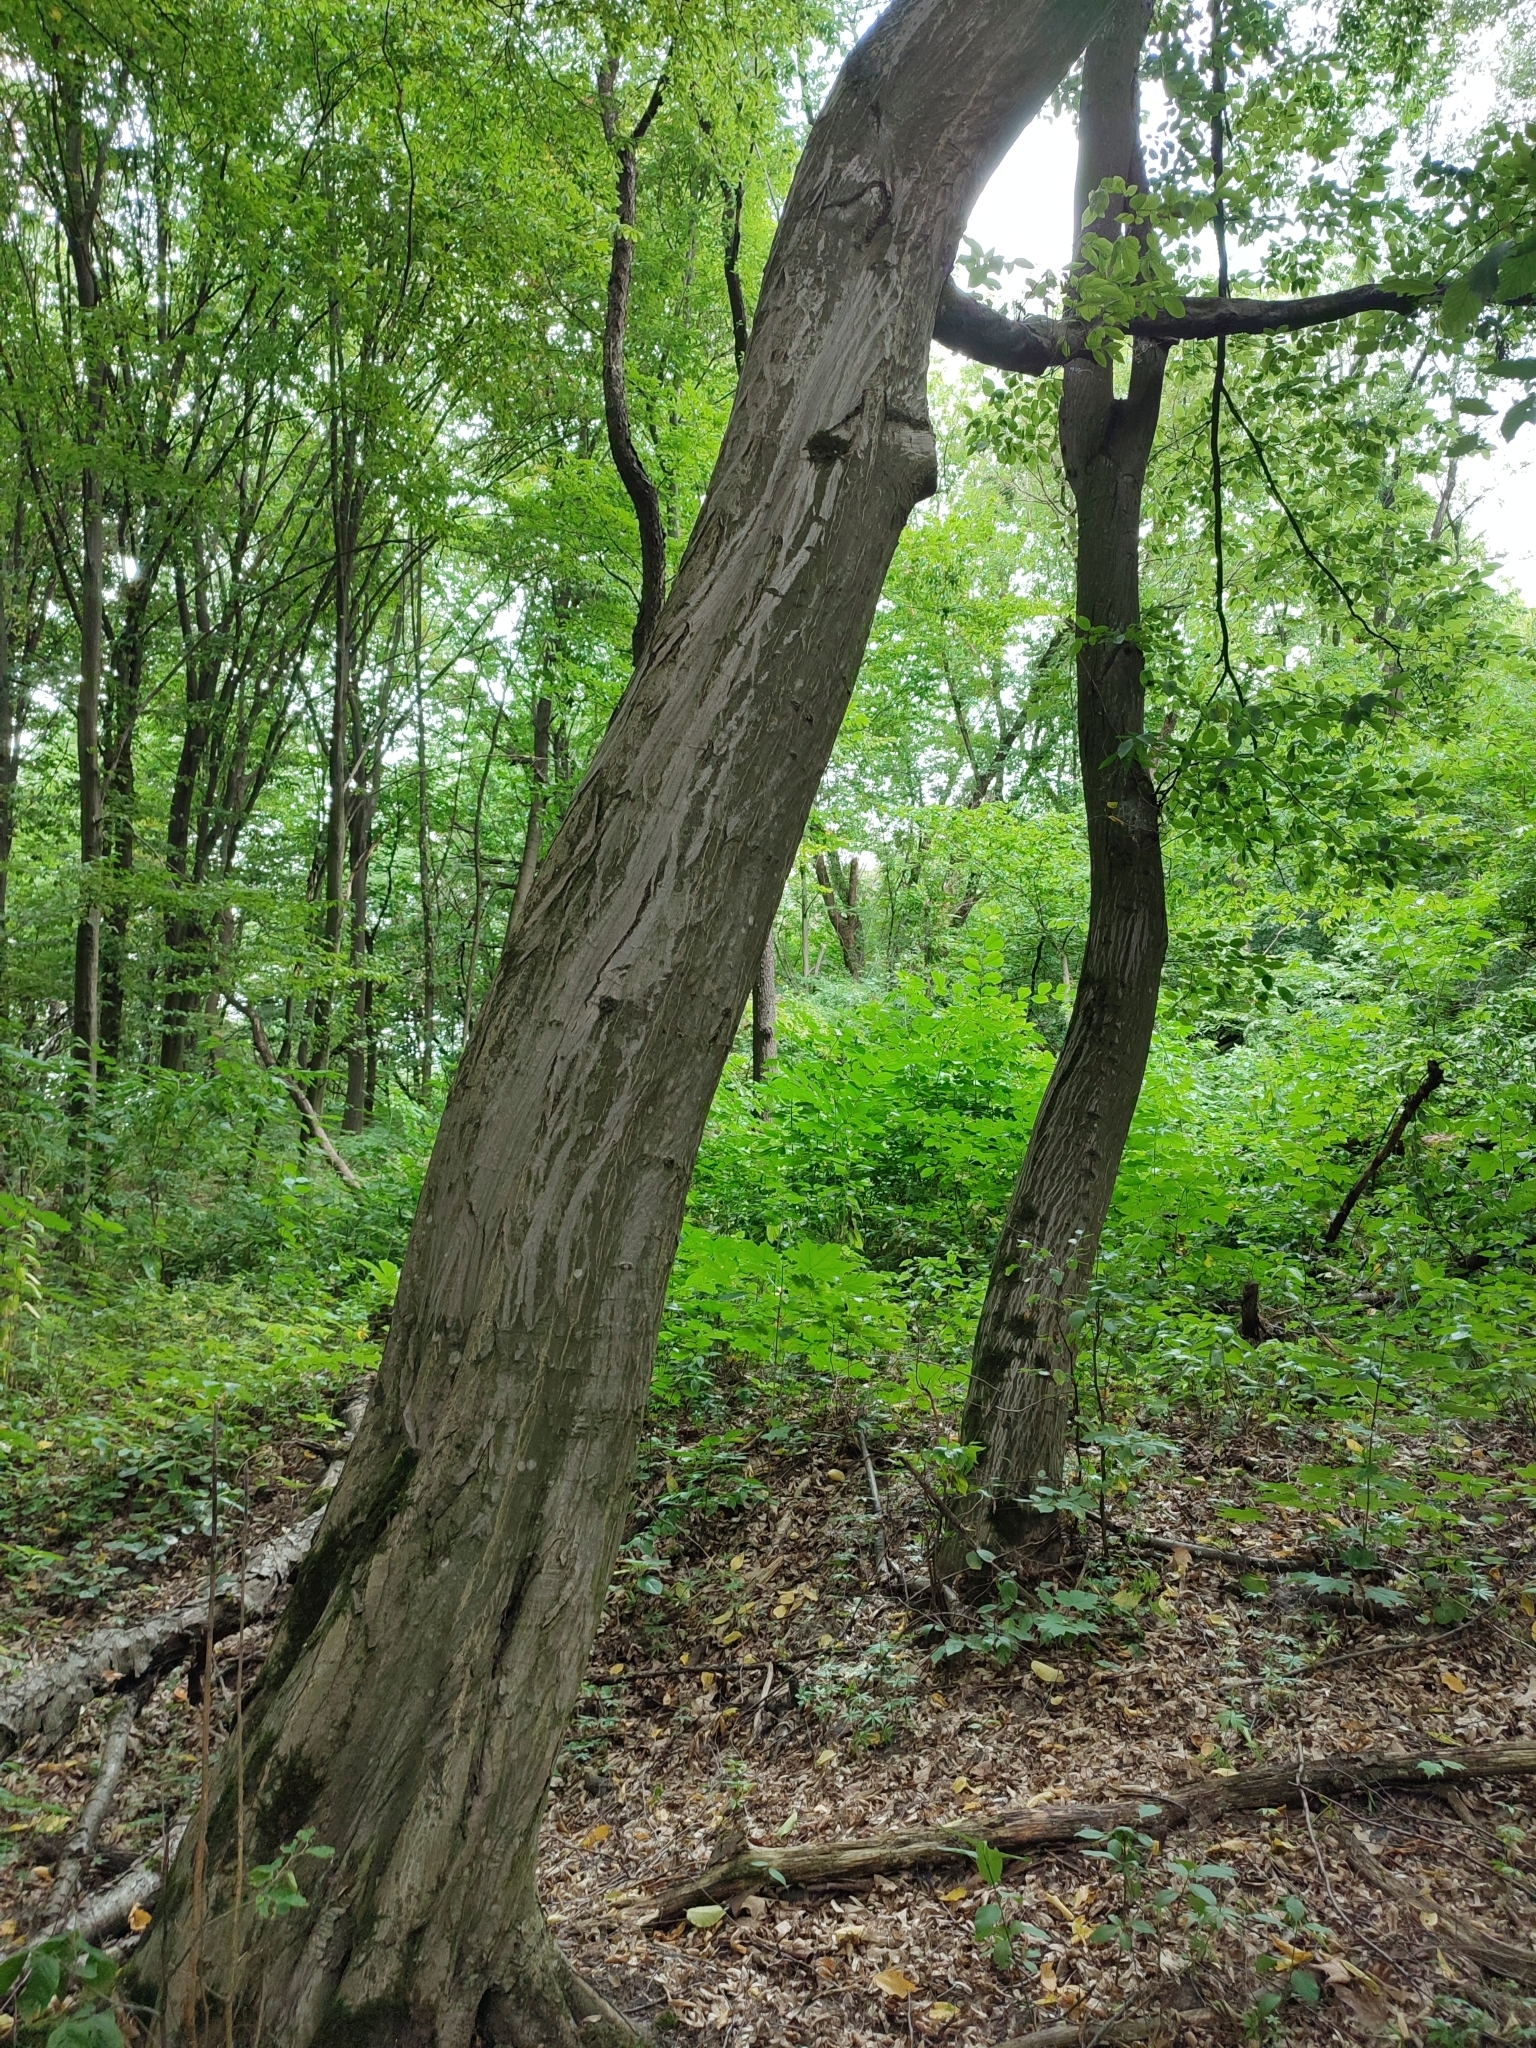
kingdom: Plantae
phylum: Tracheophyta
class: Magnoliopsida
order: Fagales
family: Betulaceae
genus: Carpinus
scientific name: Carpinus betulus
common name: Hornbeam
